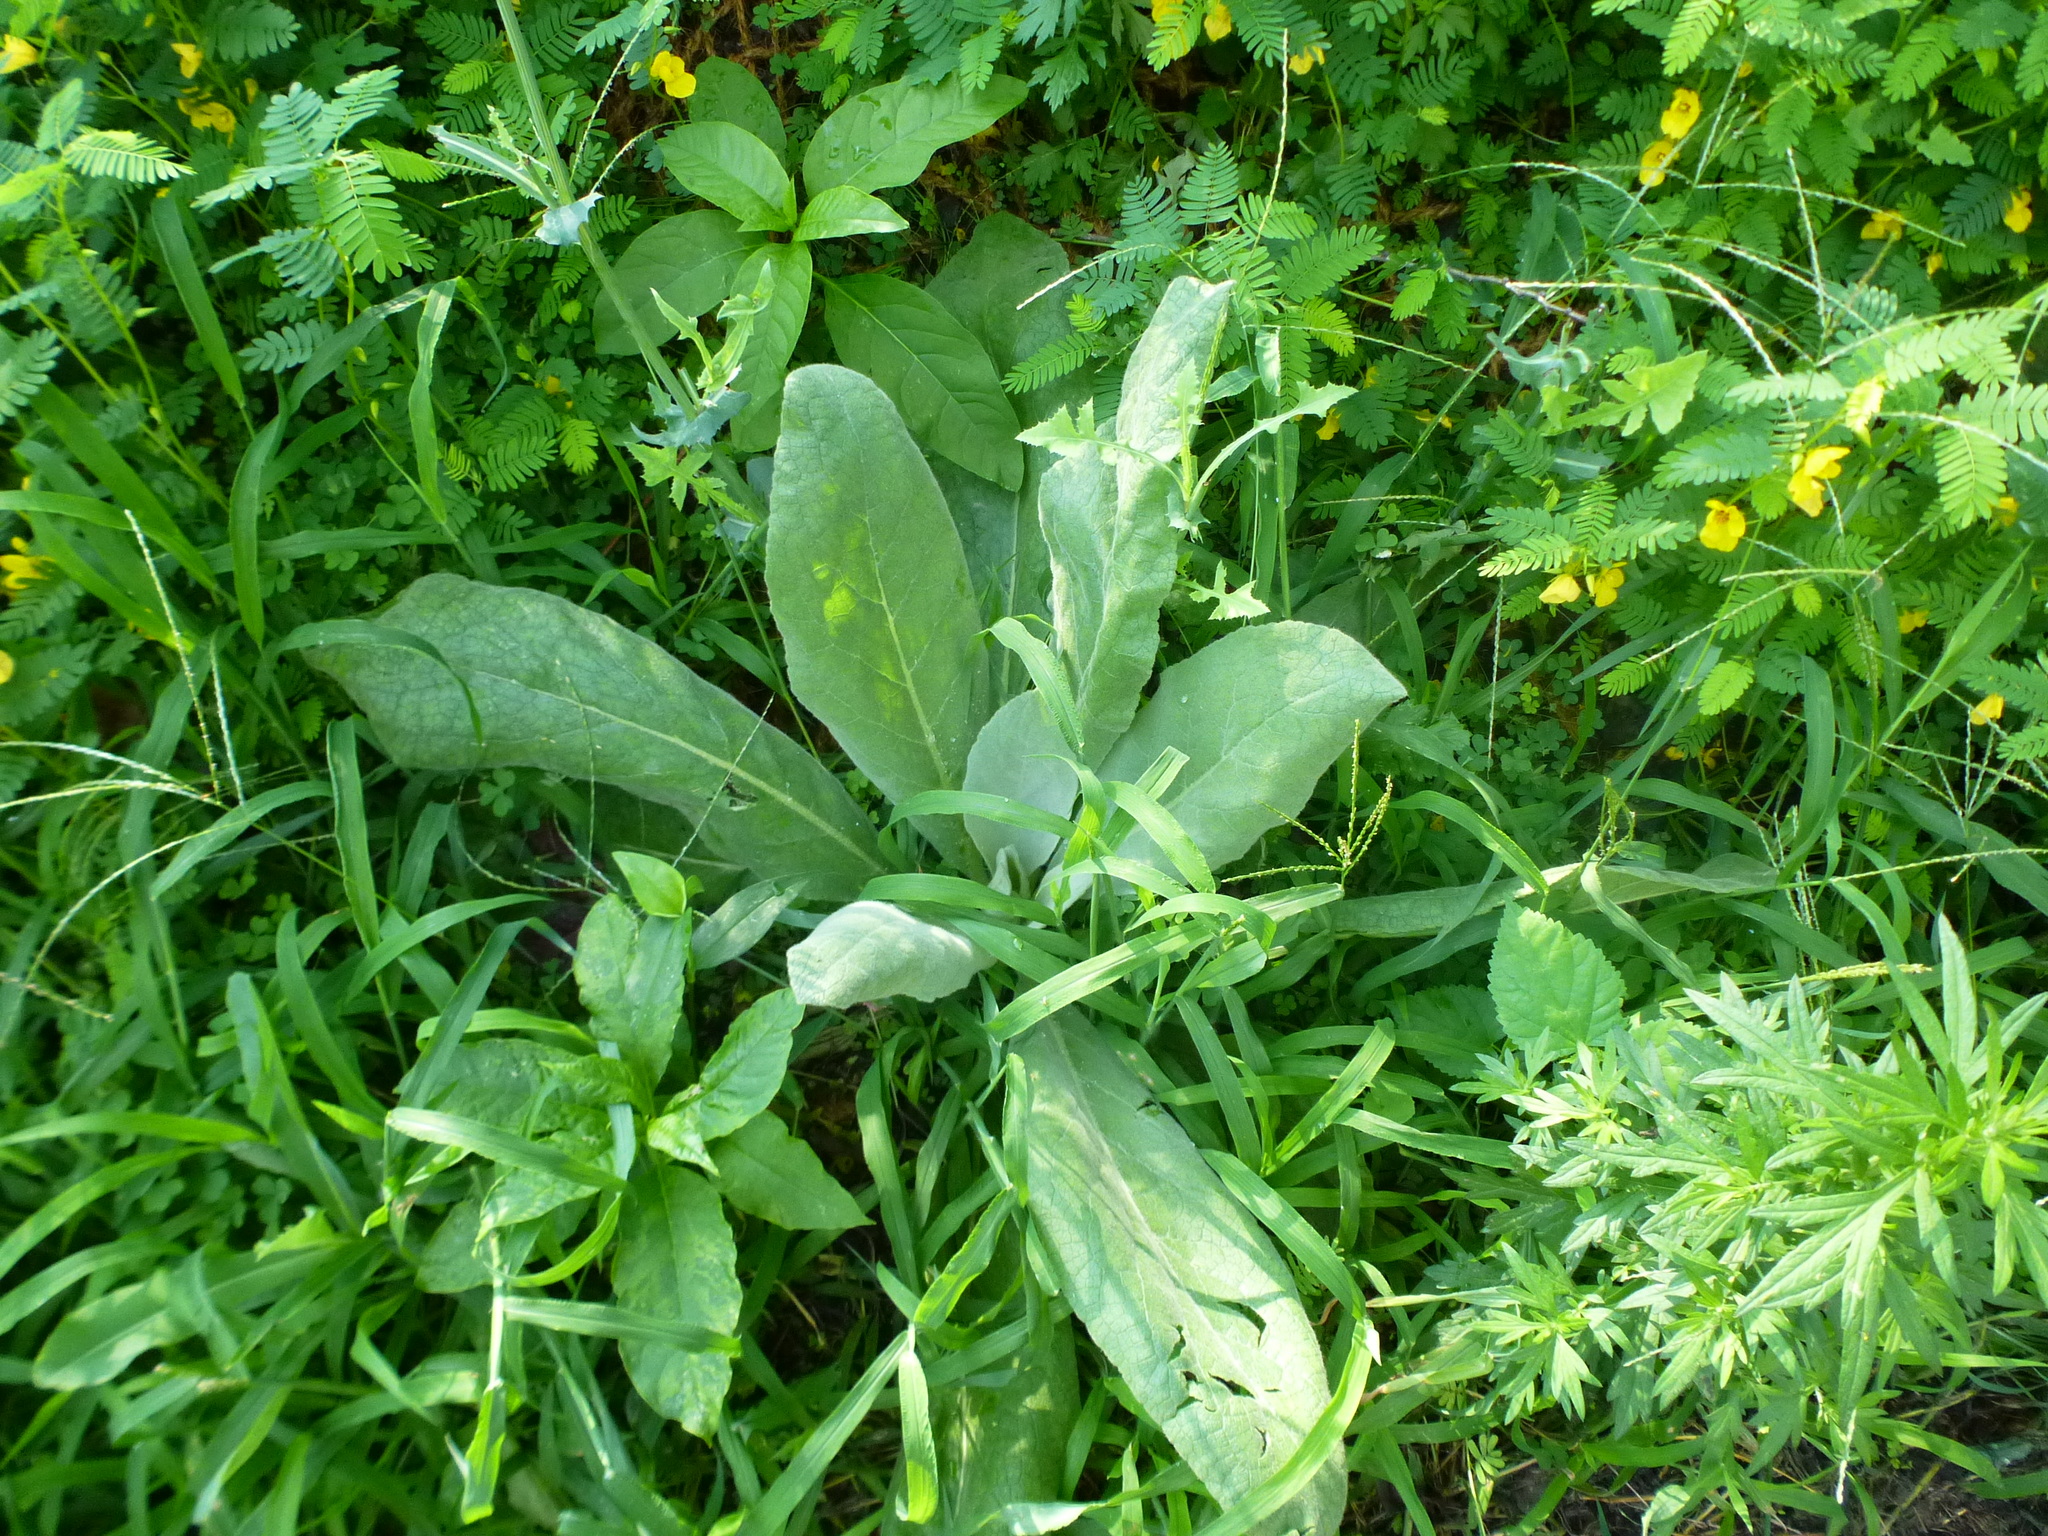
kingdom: Plantae
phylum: Tracheophyta
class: Magnoliopsida
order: Lamiales
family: Scrophulariaceae
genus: Verbascum
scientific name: Verbascum thapsus
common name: Common mullein
